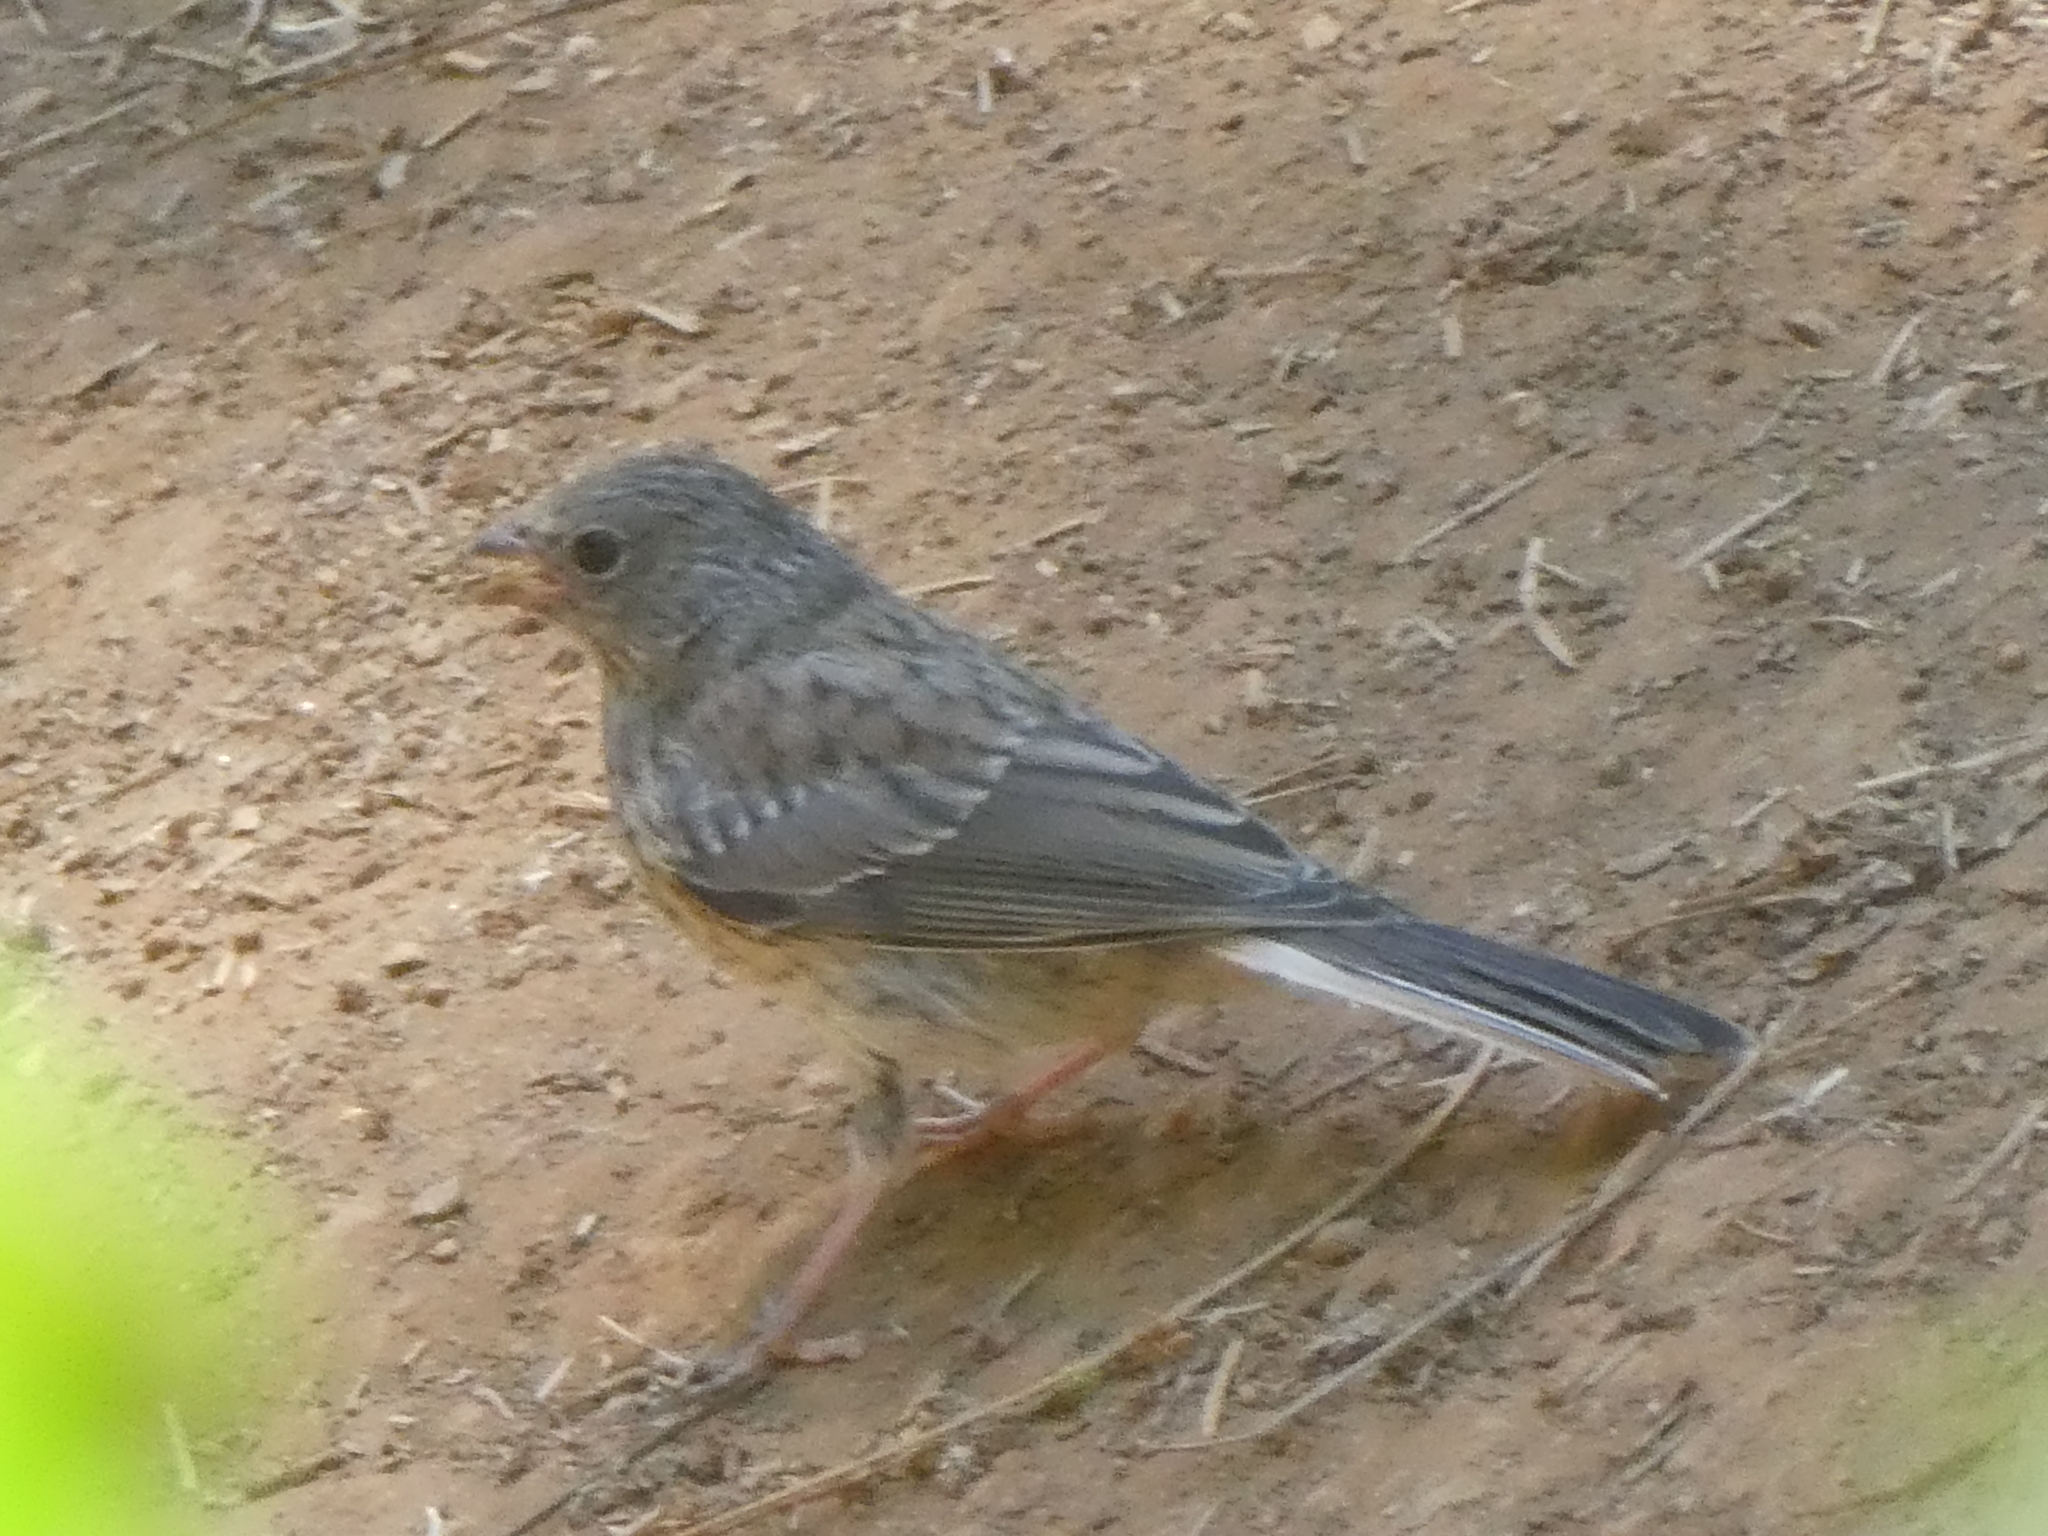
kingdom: Animalia
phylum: Chordata
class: Aves
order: Passeriformes
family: Passerellidae
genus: Junco
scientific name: Junco hyemalis
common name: Dark-eyed junco
